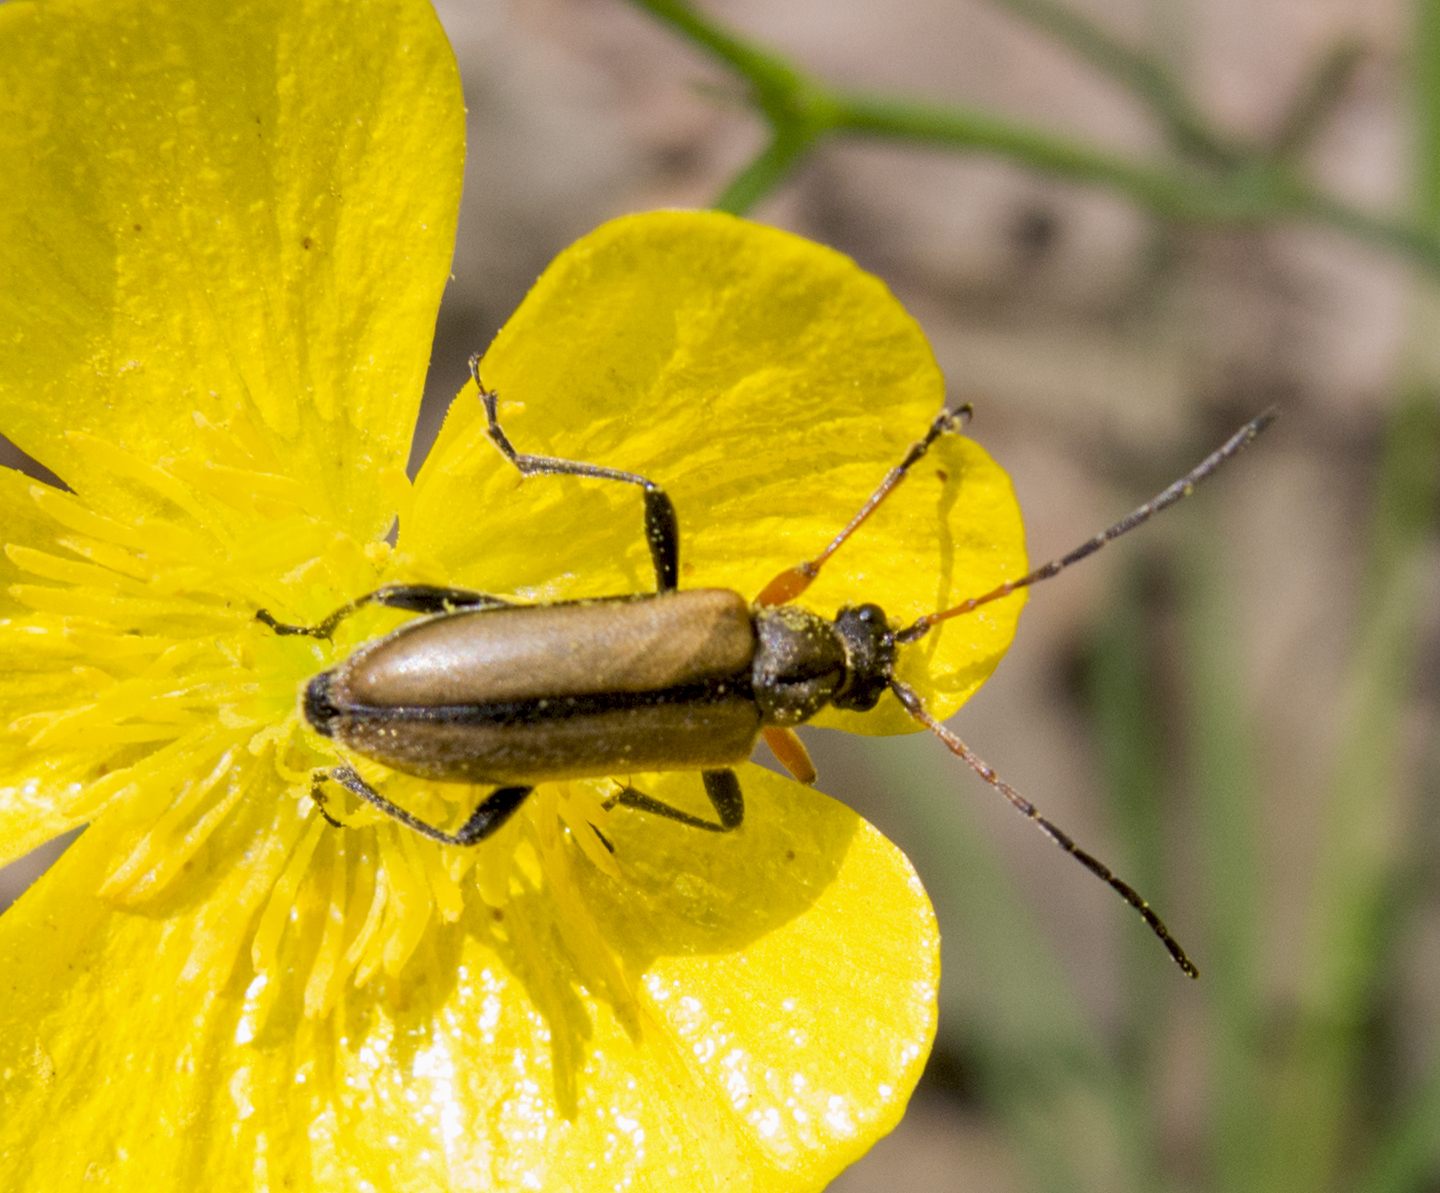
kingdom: Animalia
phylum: Arthropoda
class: Insecta
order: Coleoptera
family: Cerambycidae
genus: Cortodera
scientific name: Cortodera flavimana
